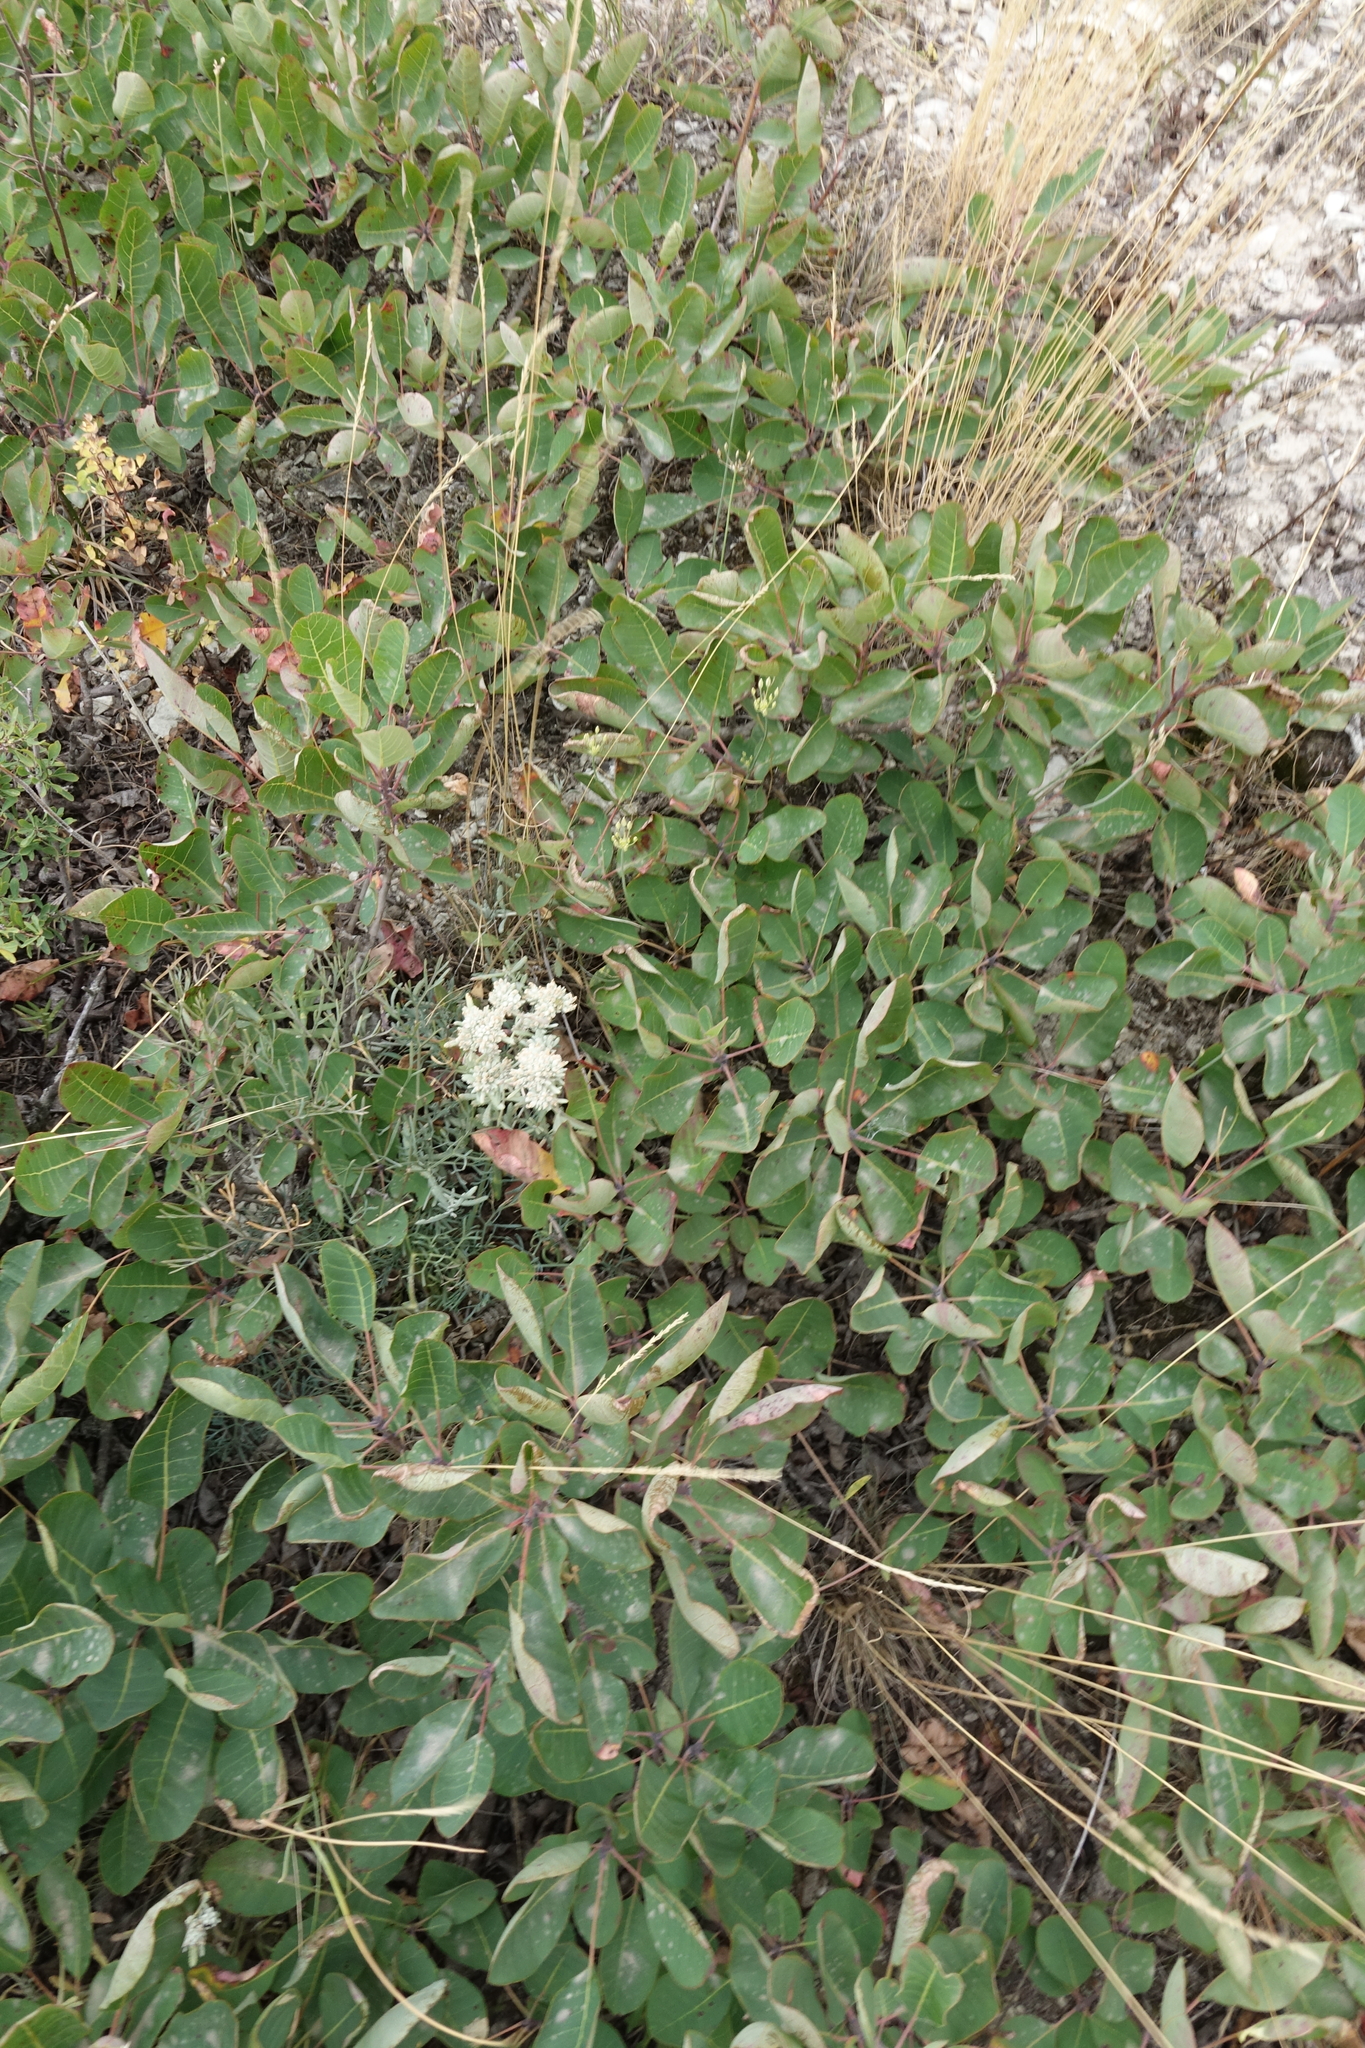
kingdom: Plantae
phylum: Tracheophyta
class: Magnoliopsida
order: Sapindales
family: Anacardiaceae
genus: Cotinus
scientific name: Cotinus coggygria
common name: Smoke-tree
